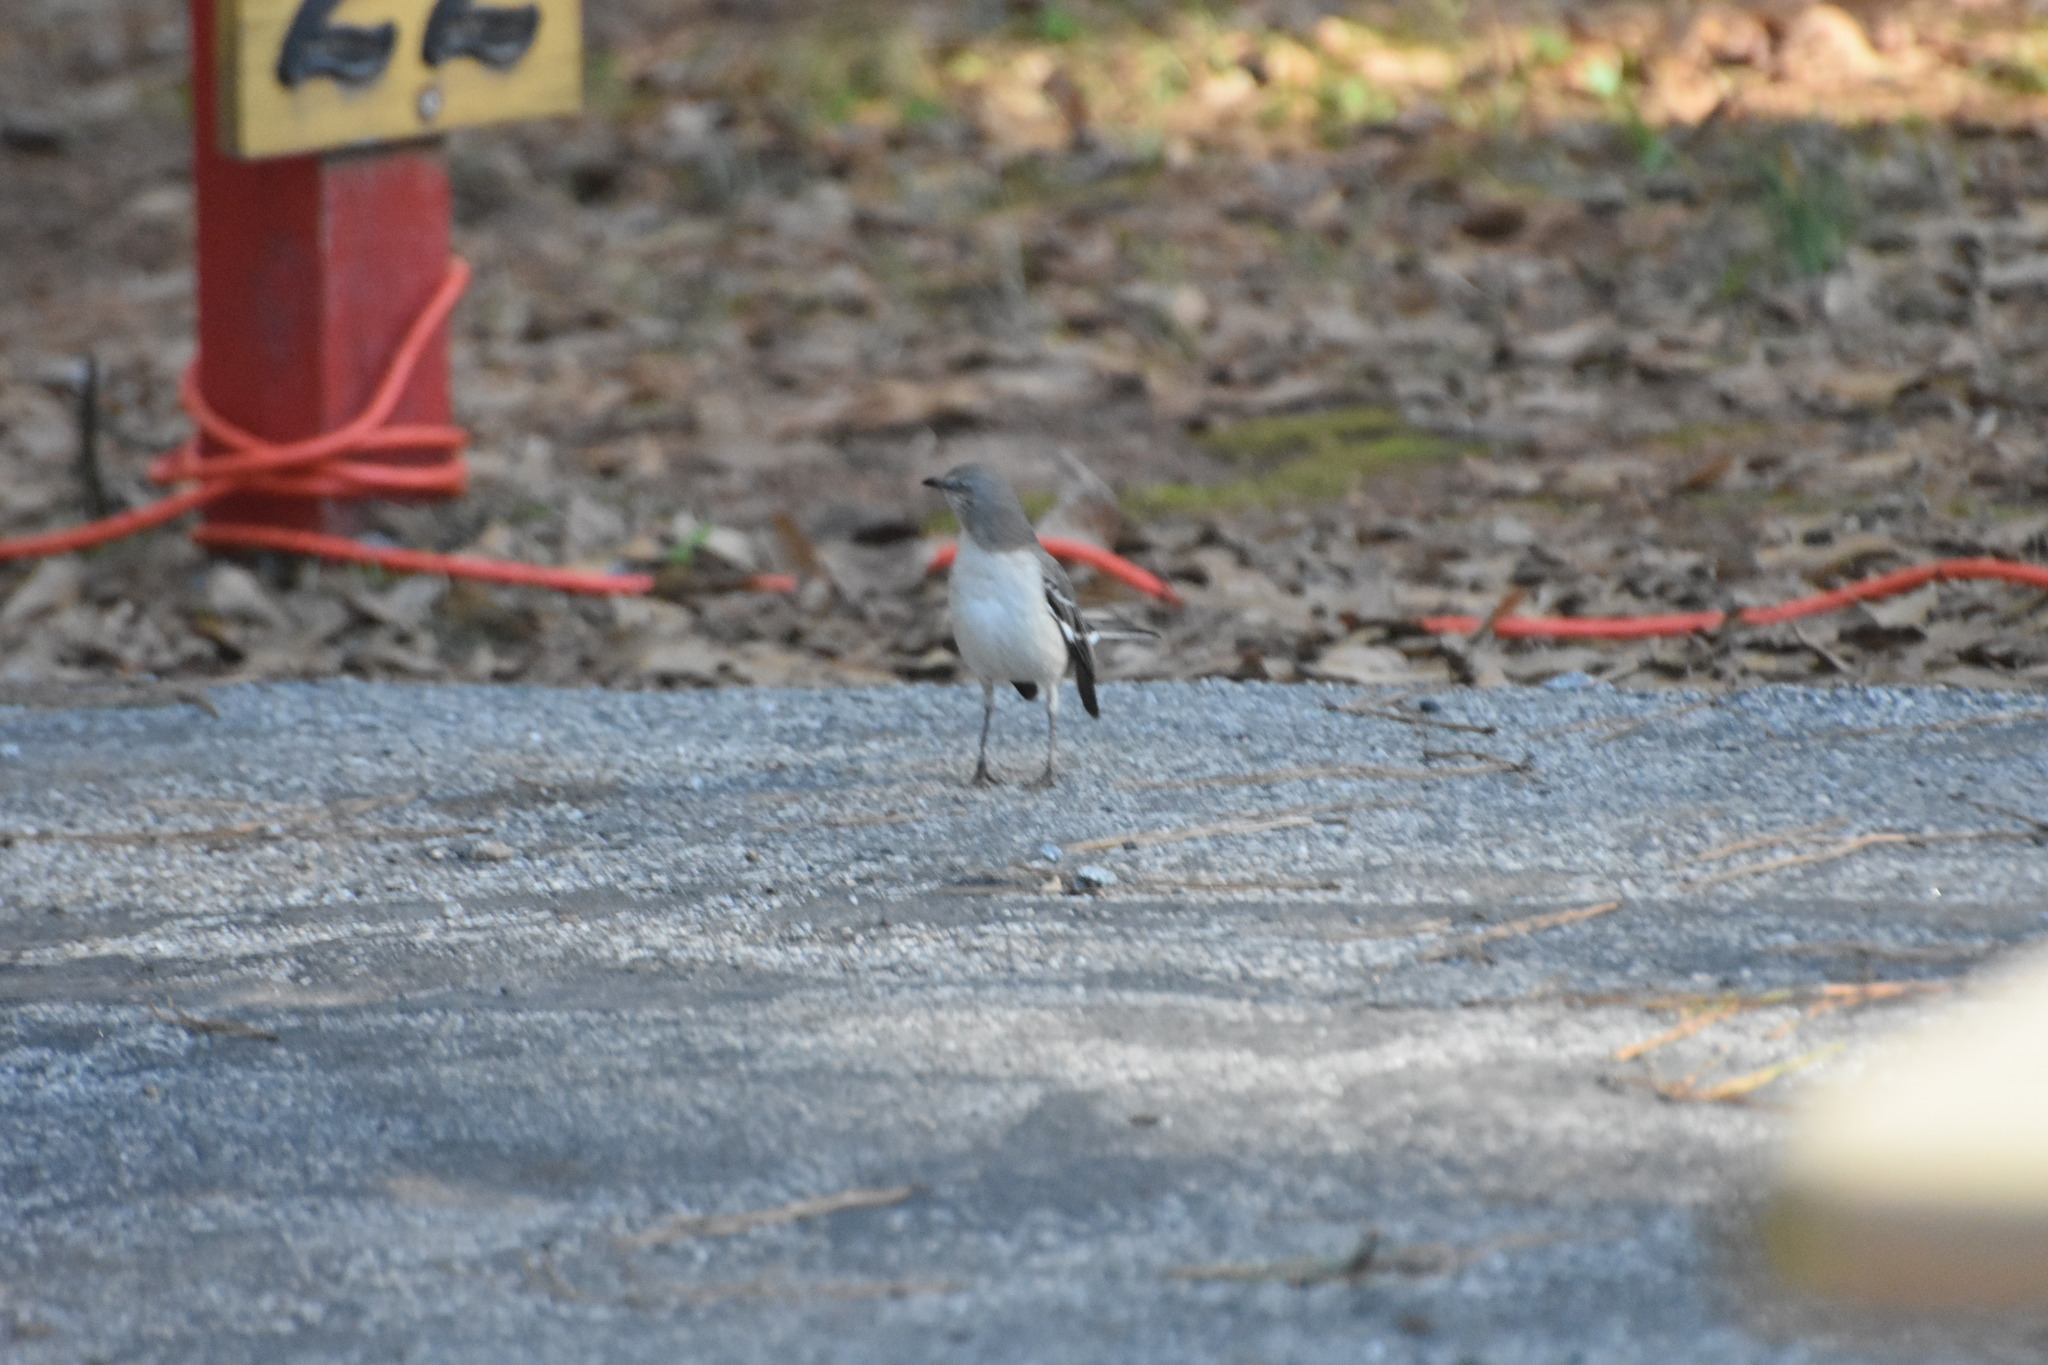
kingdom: Animalia
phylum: Chordata
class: Aves
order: Passeriformes
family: Mimidae
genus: Mimus
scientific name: Mimus polyglottos
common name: Northern mockingbird
